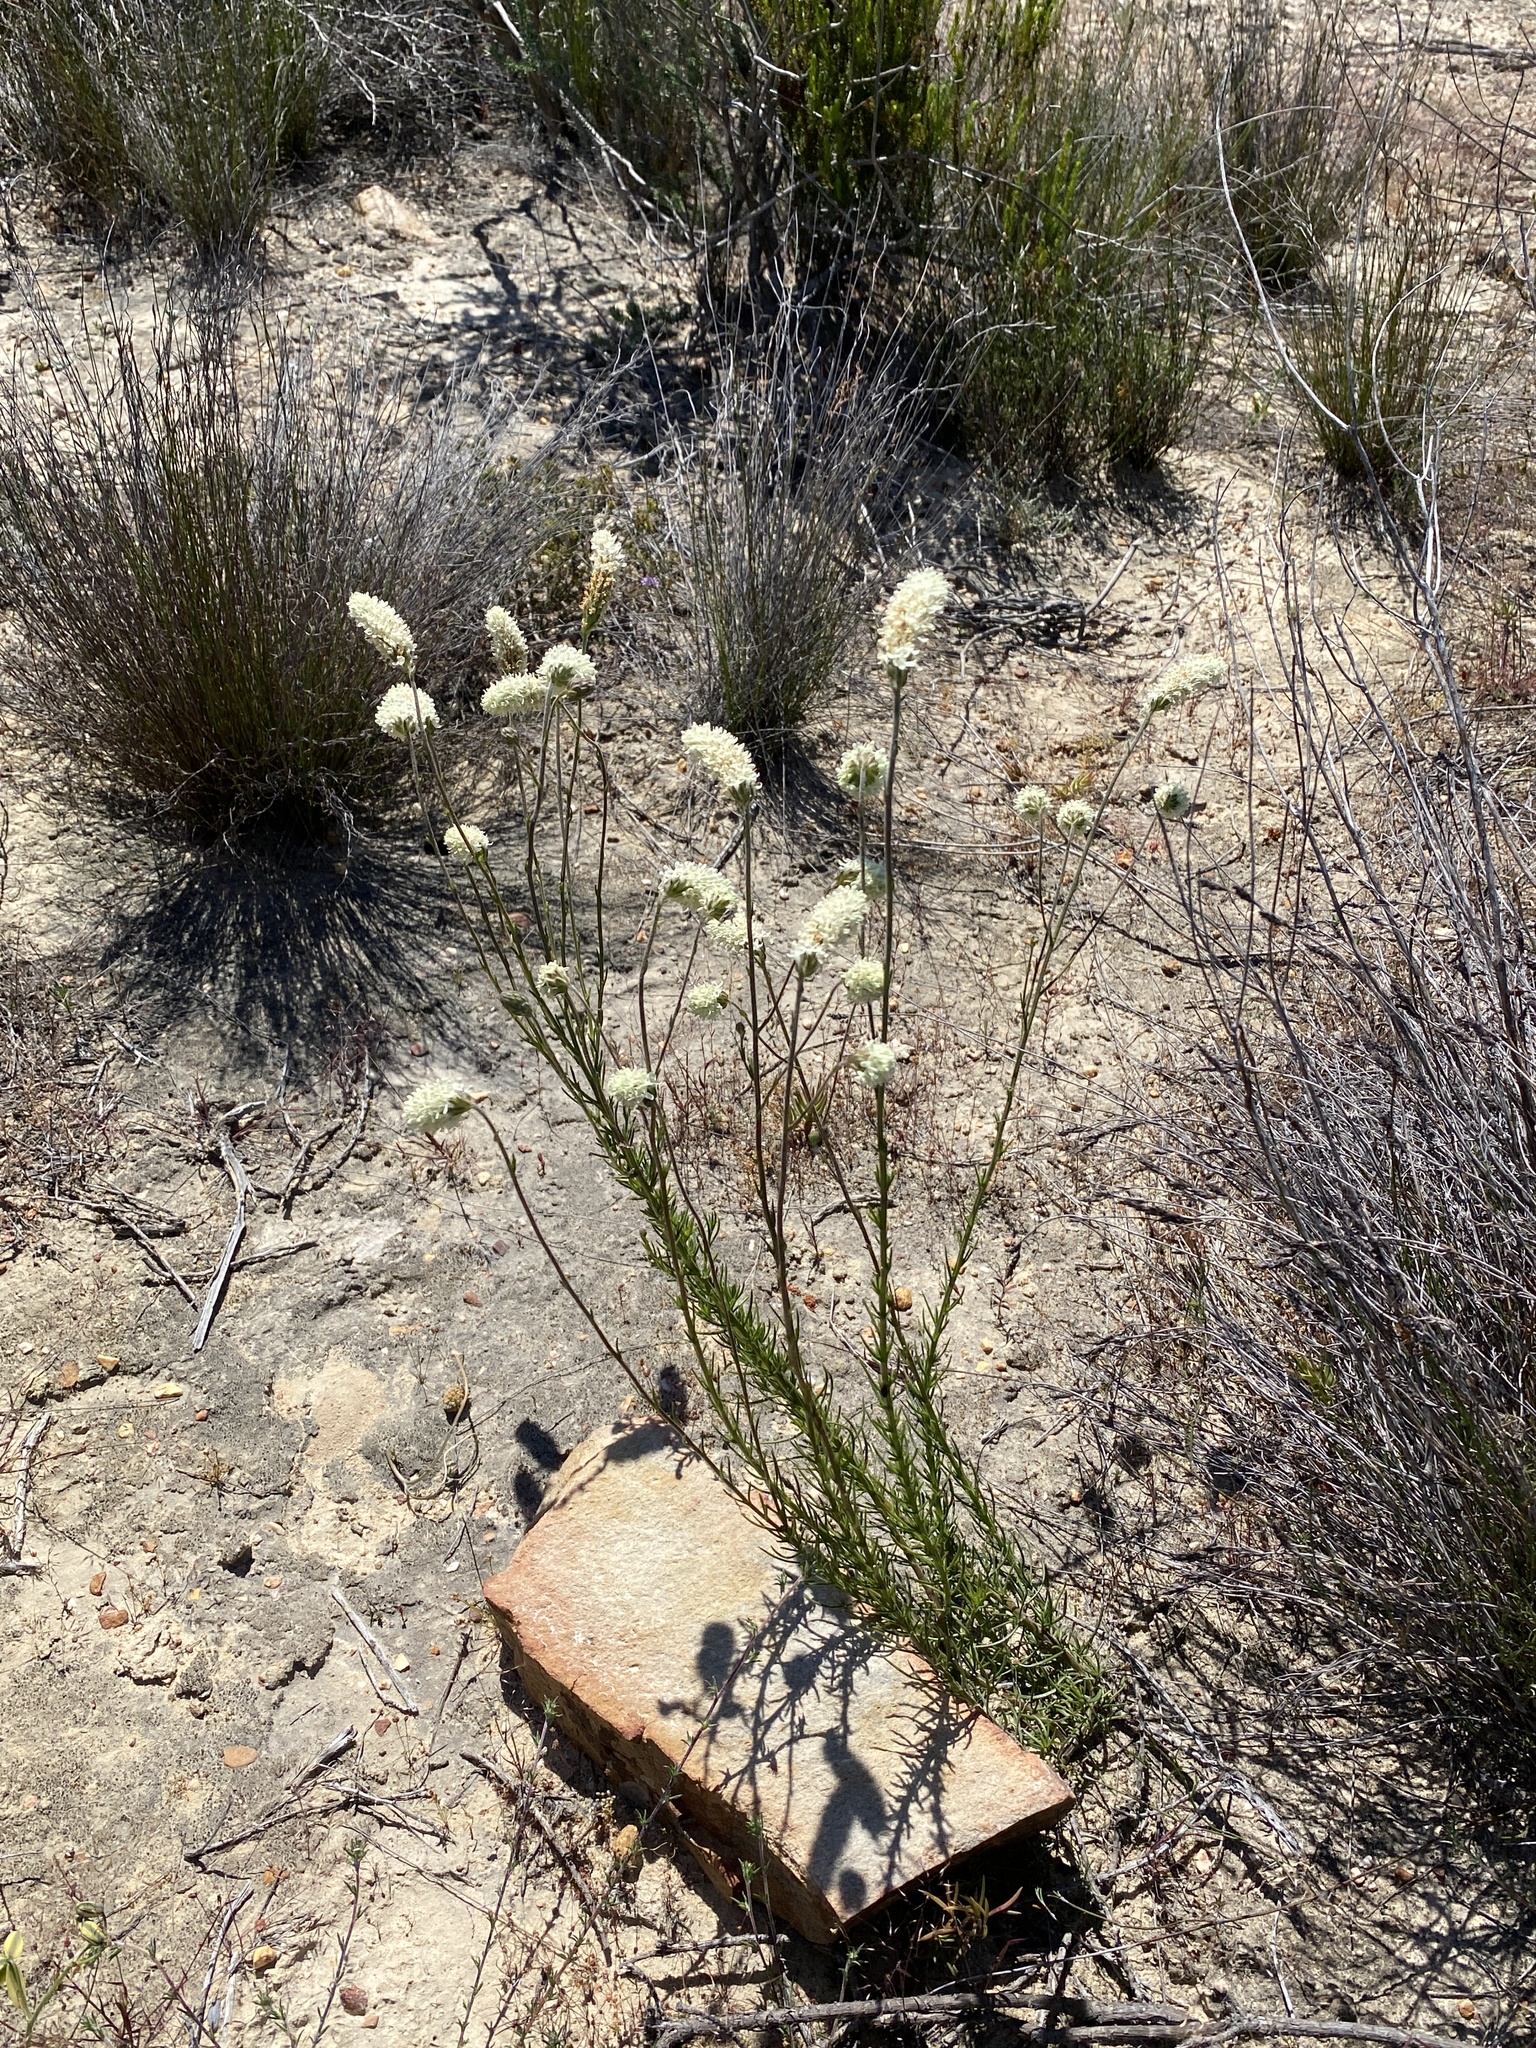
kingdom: Plantae
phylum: Tracheophyta
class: Magnoliopsida
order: Lamiales
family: Scrophulariaceae
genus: Phyllopodium
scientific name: Phyllopodium elegans
